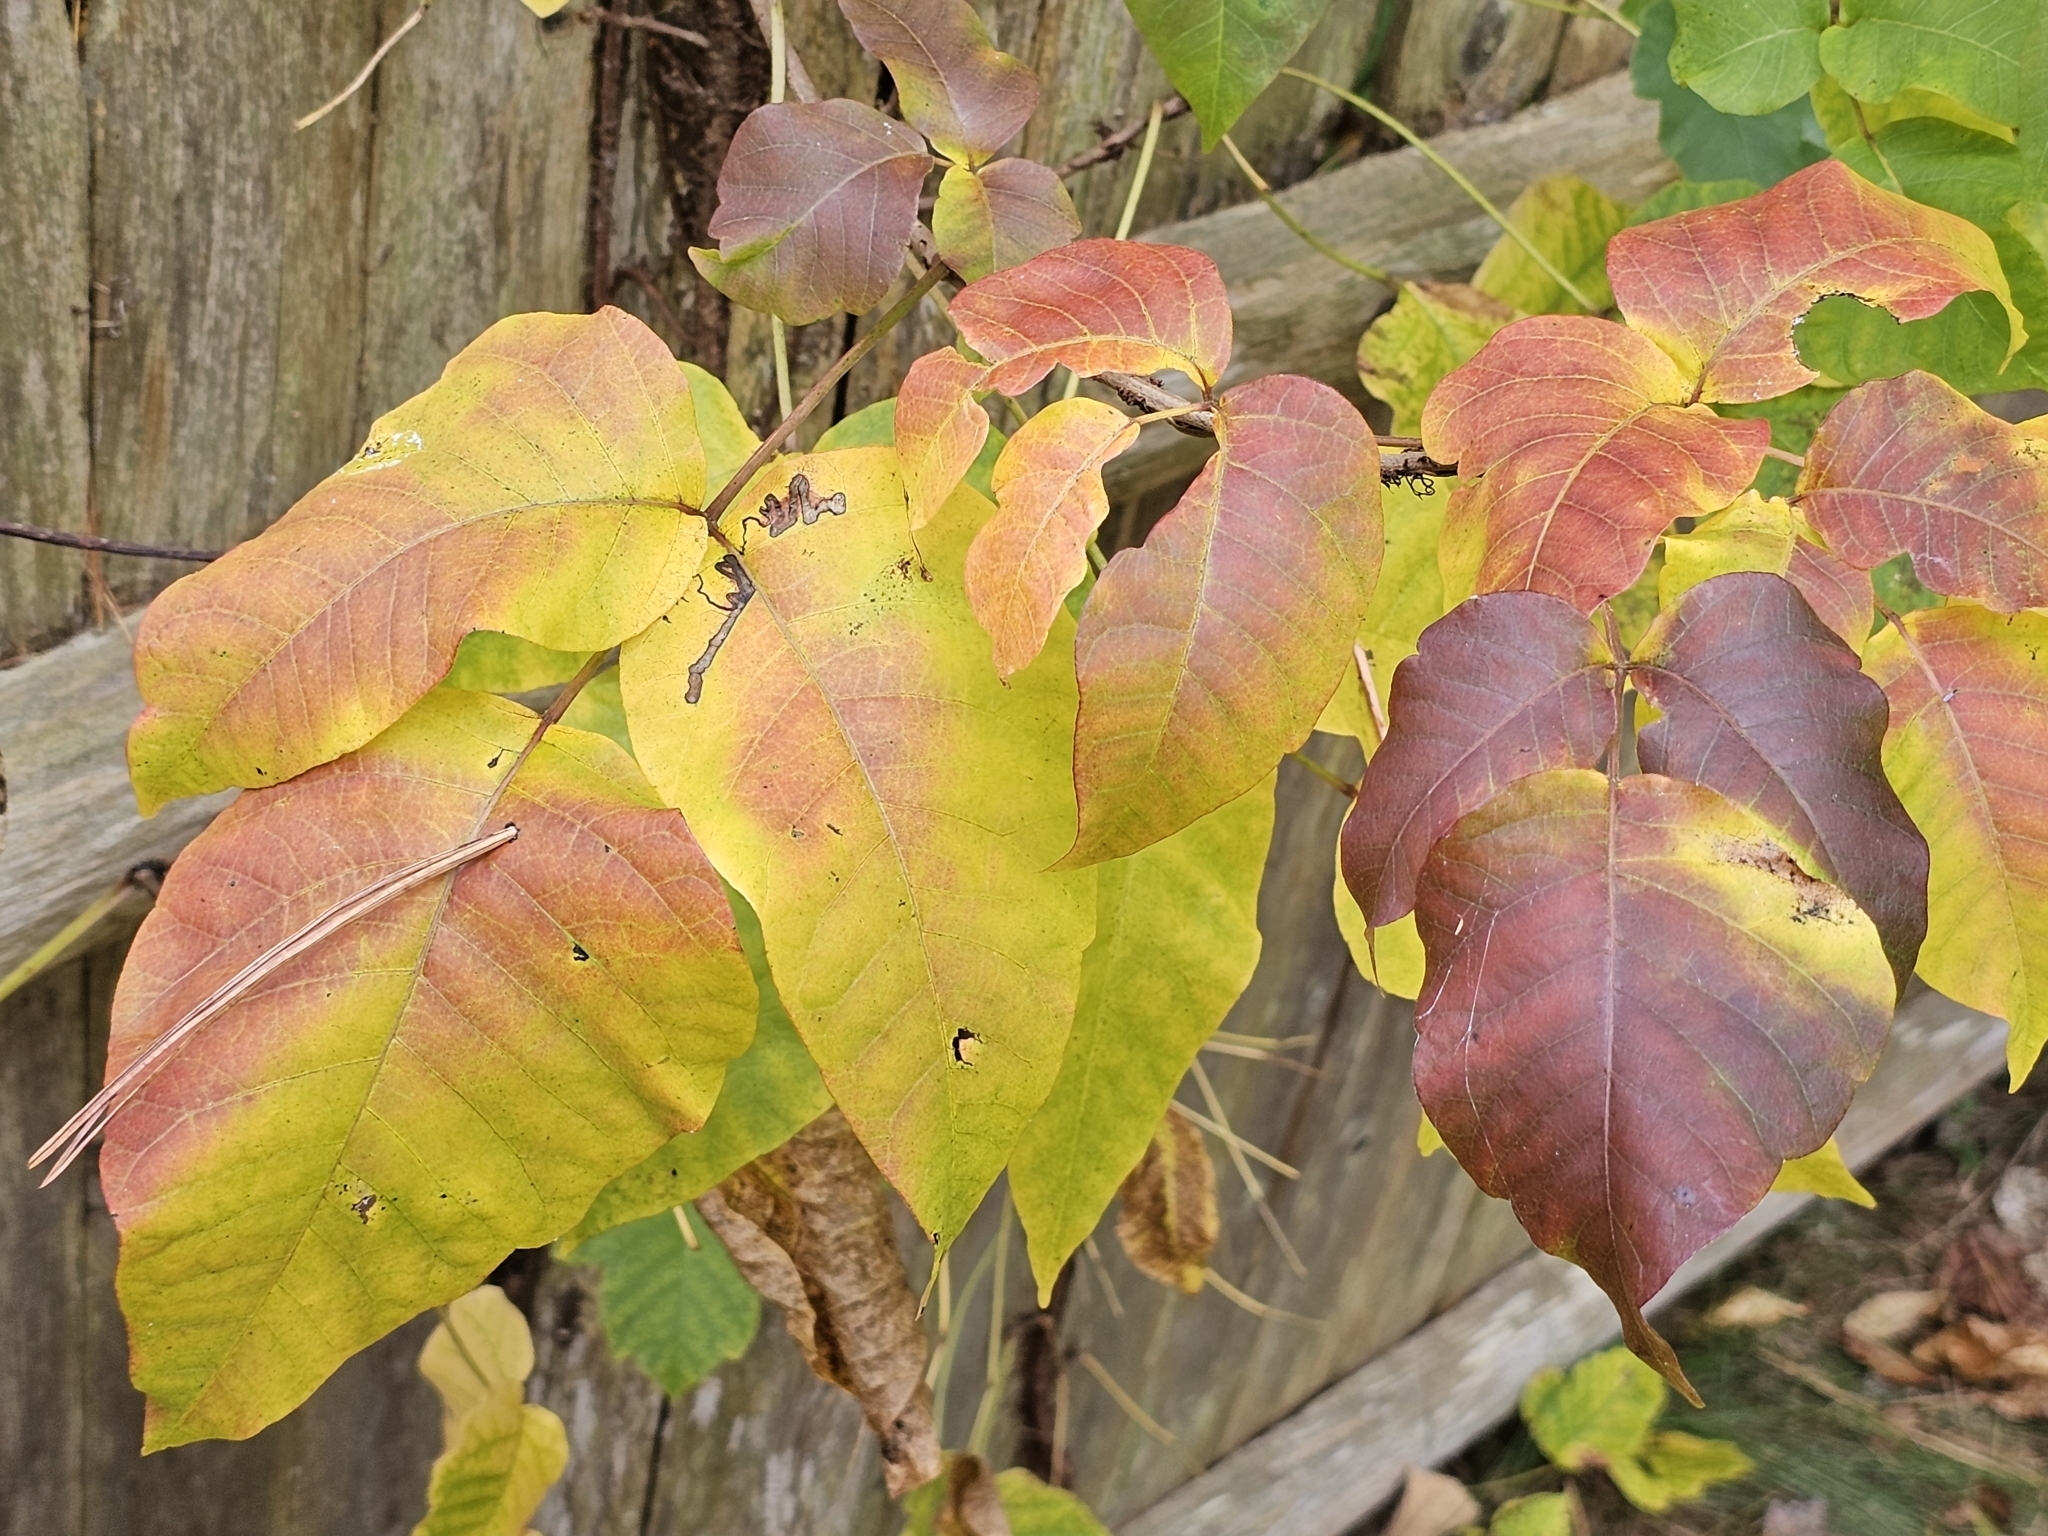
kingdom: Animalia
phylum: Arthropoda
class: Insecta
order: Lepidoptera
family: Nepticulidae
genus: Stigmella
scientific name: Stigmella rhoifoliella
